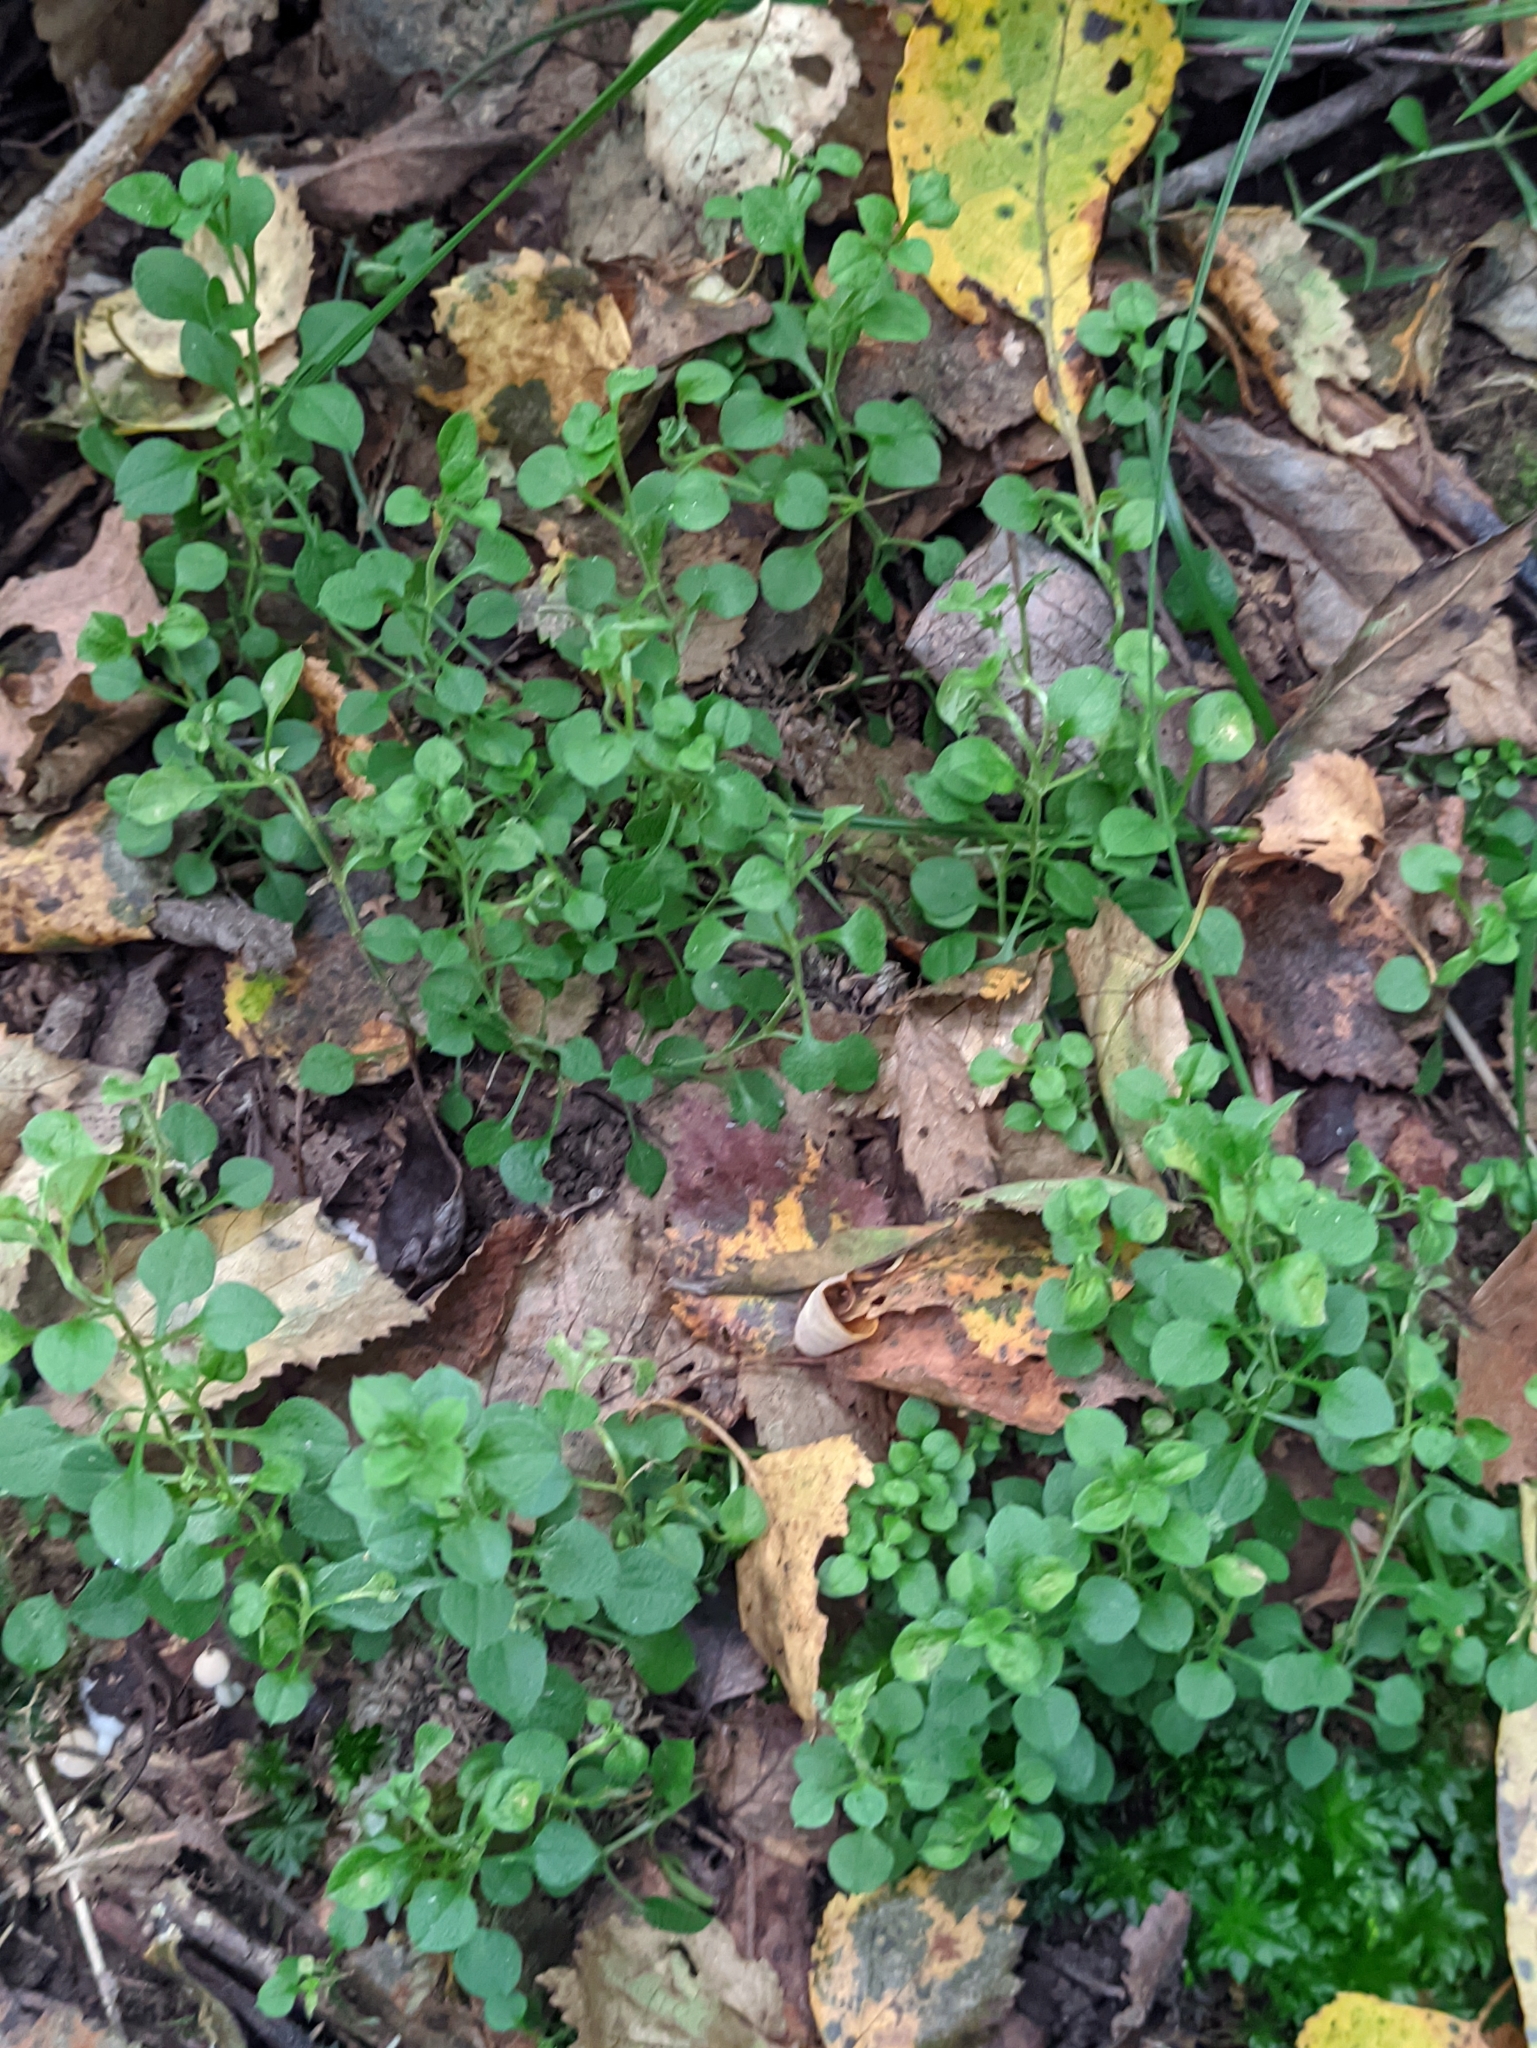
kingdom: Plantae
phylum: Tracheophyta
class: Magnoliopsida
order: Caryophyllales
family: Caryophyllaceae
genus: Moehringia
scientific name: Moehringia trinervia
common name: Three-nerved sandwort
